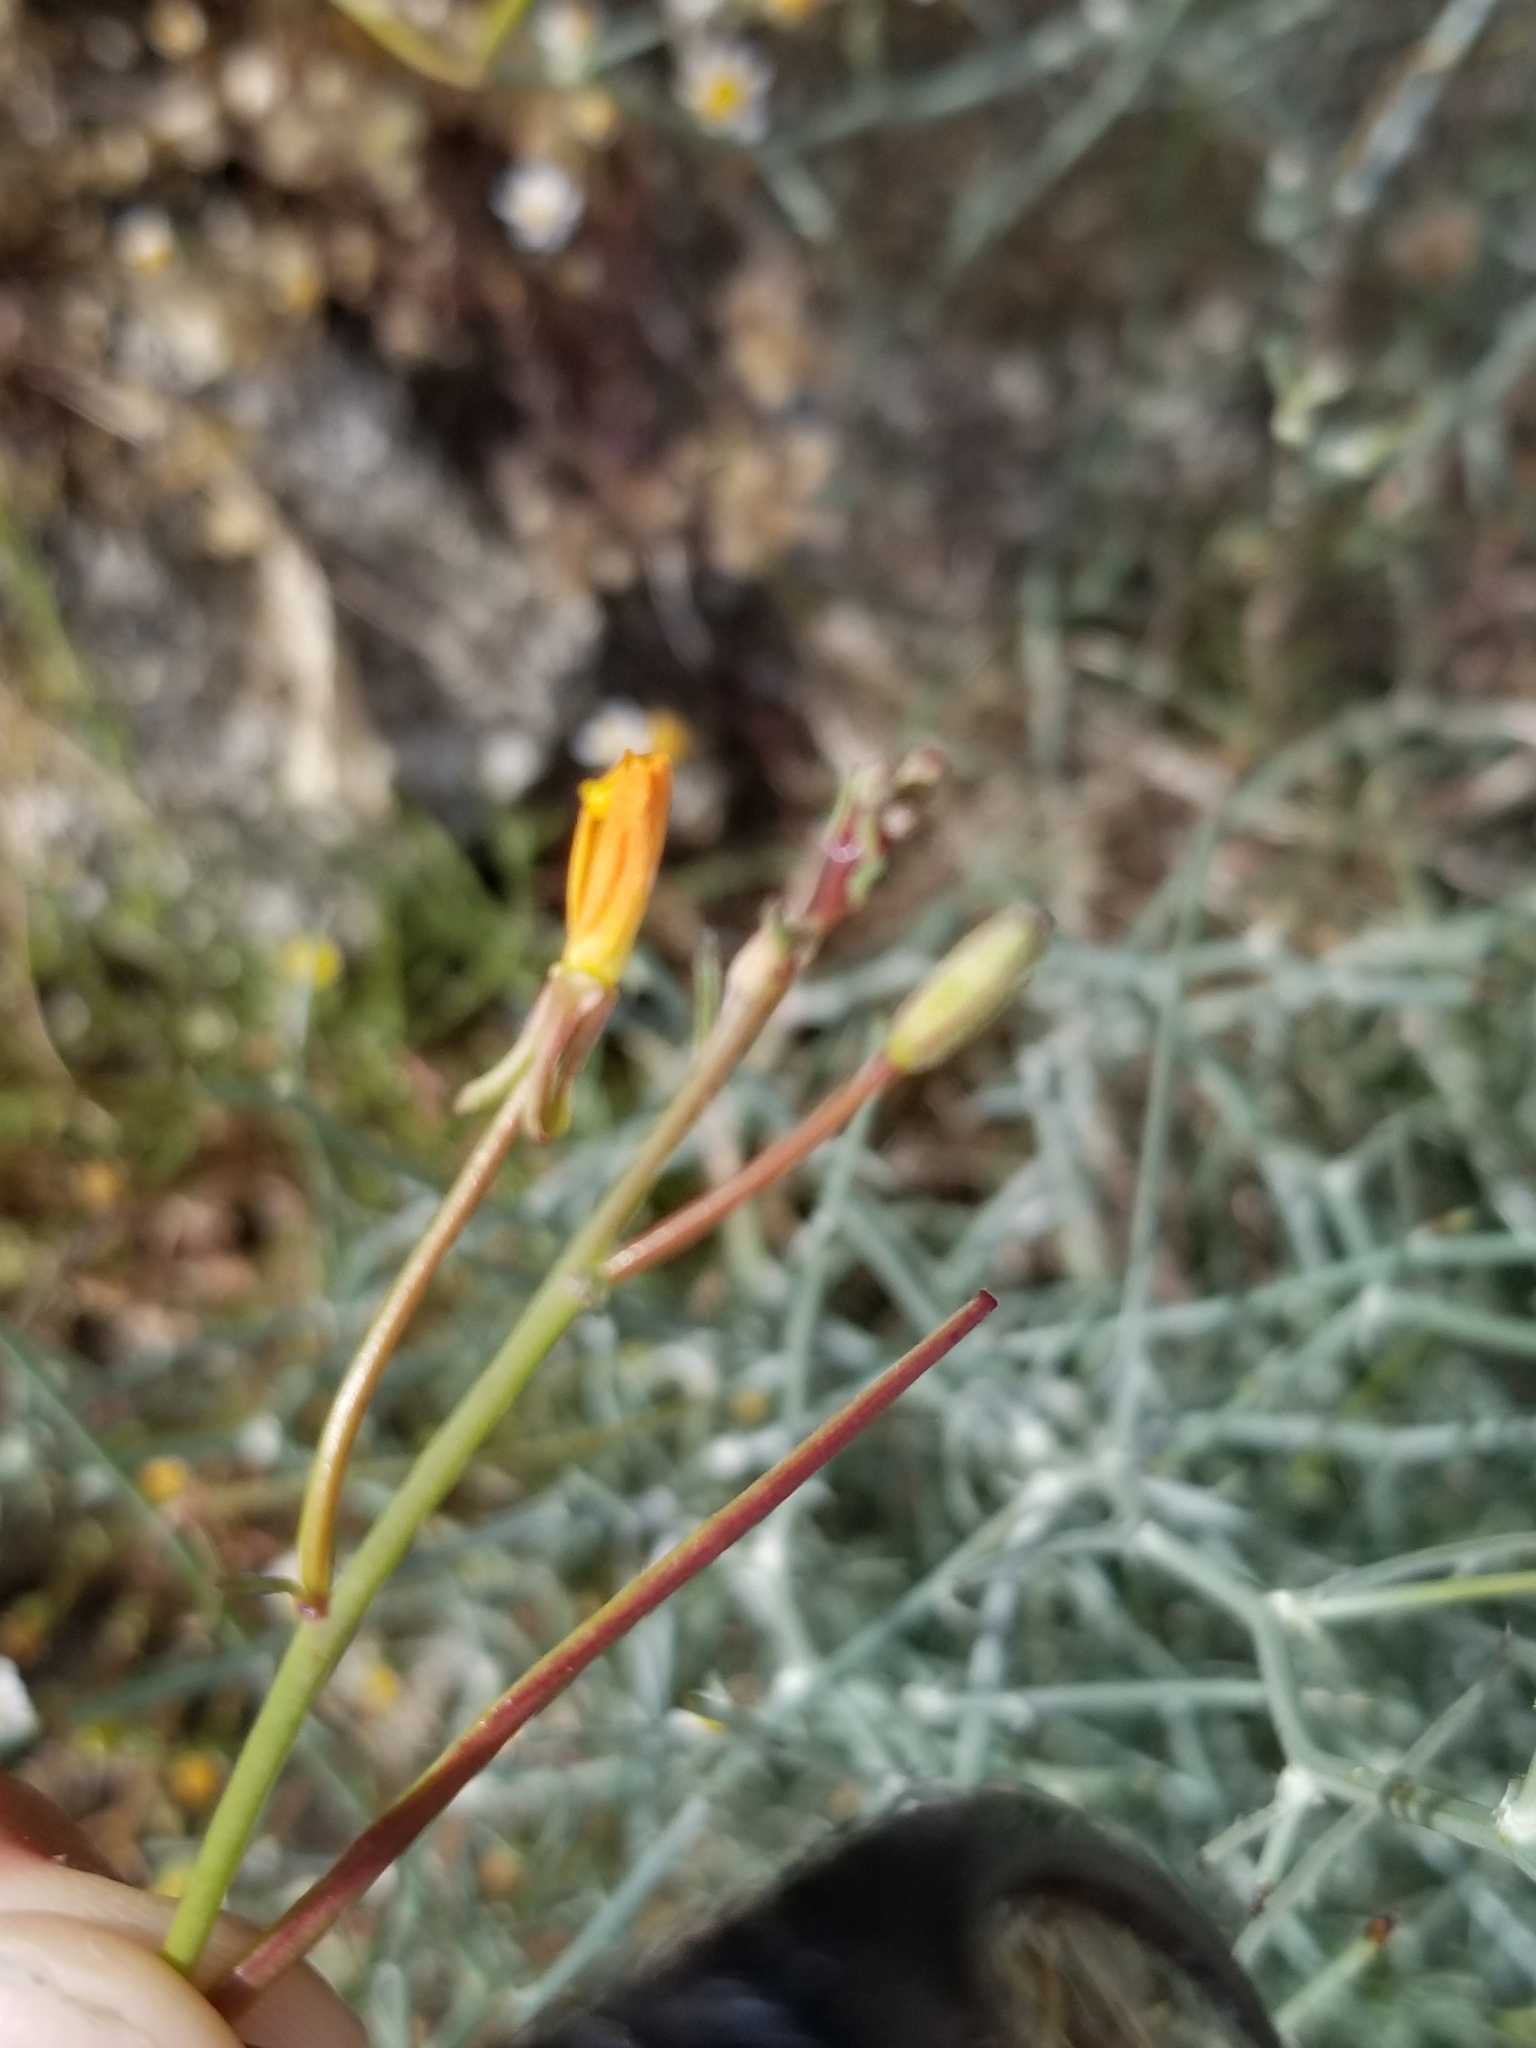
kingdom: Plantae
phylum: Tracheophyta
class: Magnoliopsida
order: Myrtales
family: Onagraceae
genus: Eulobus
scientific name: Eulobus californicus
